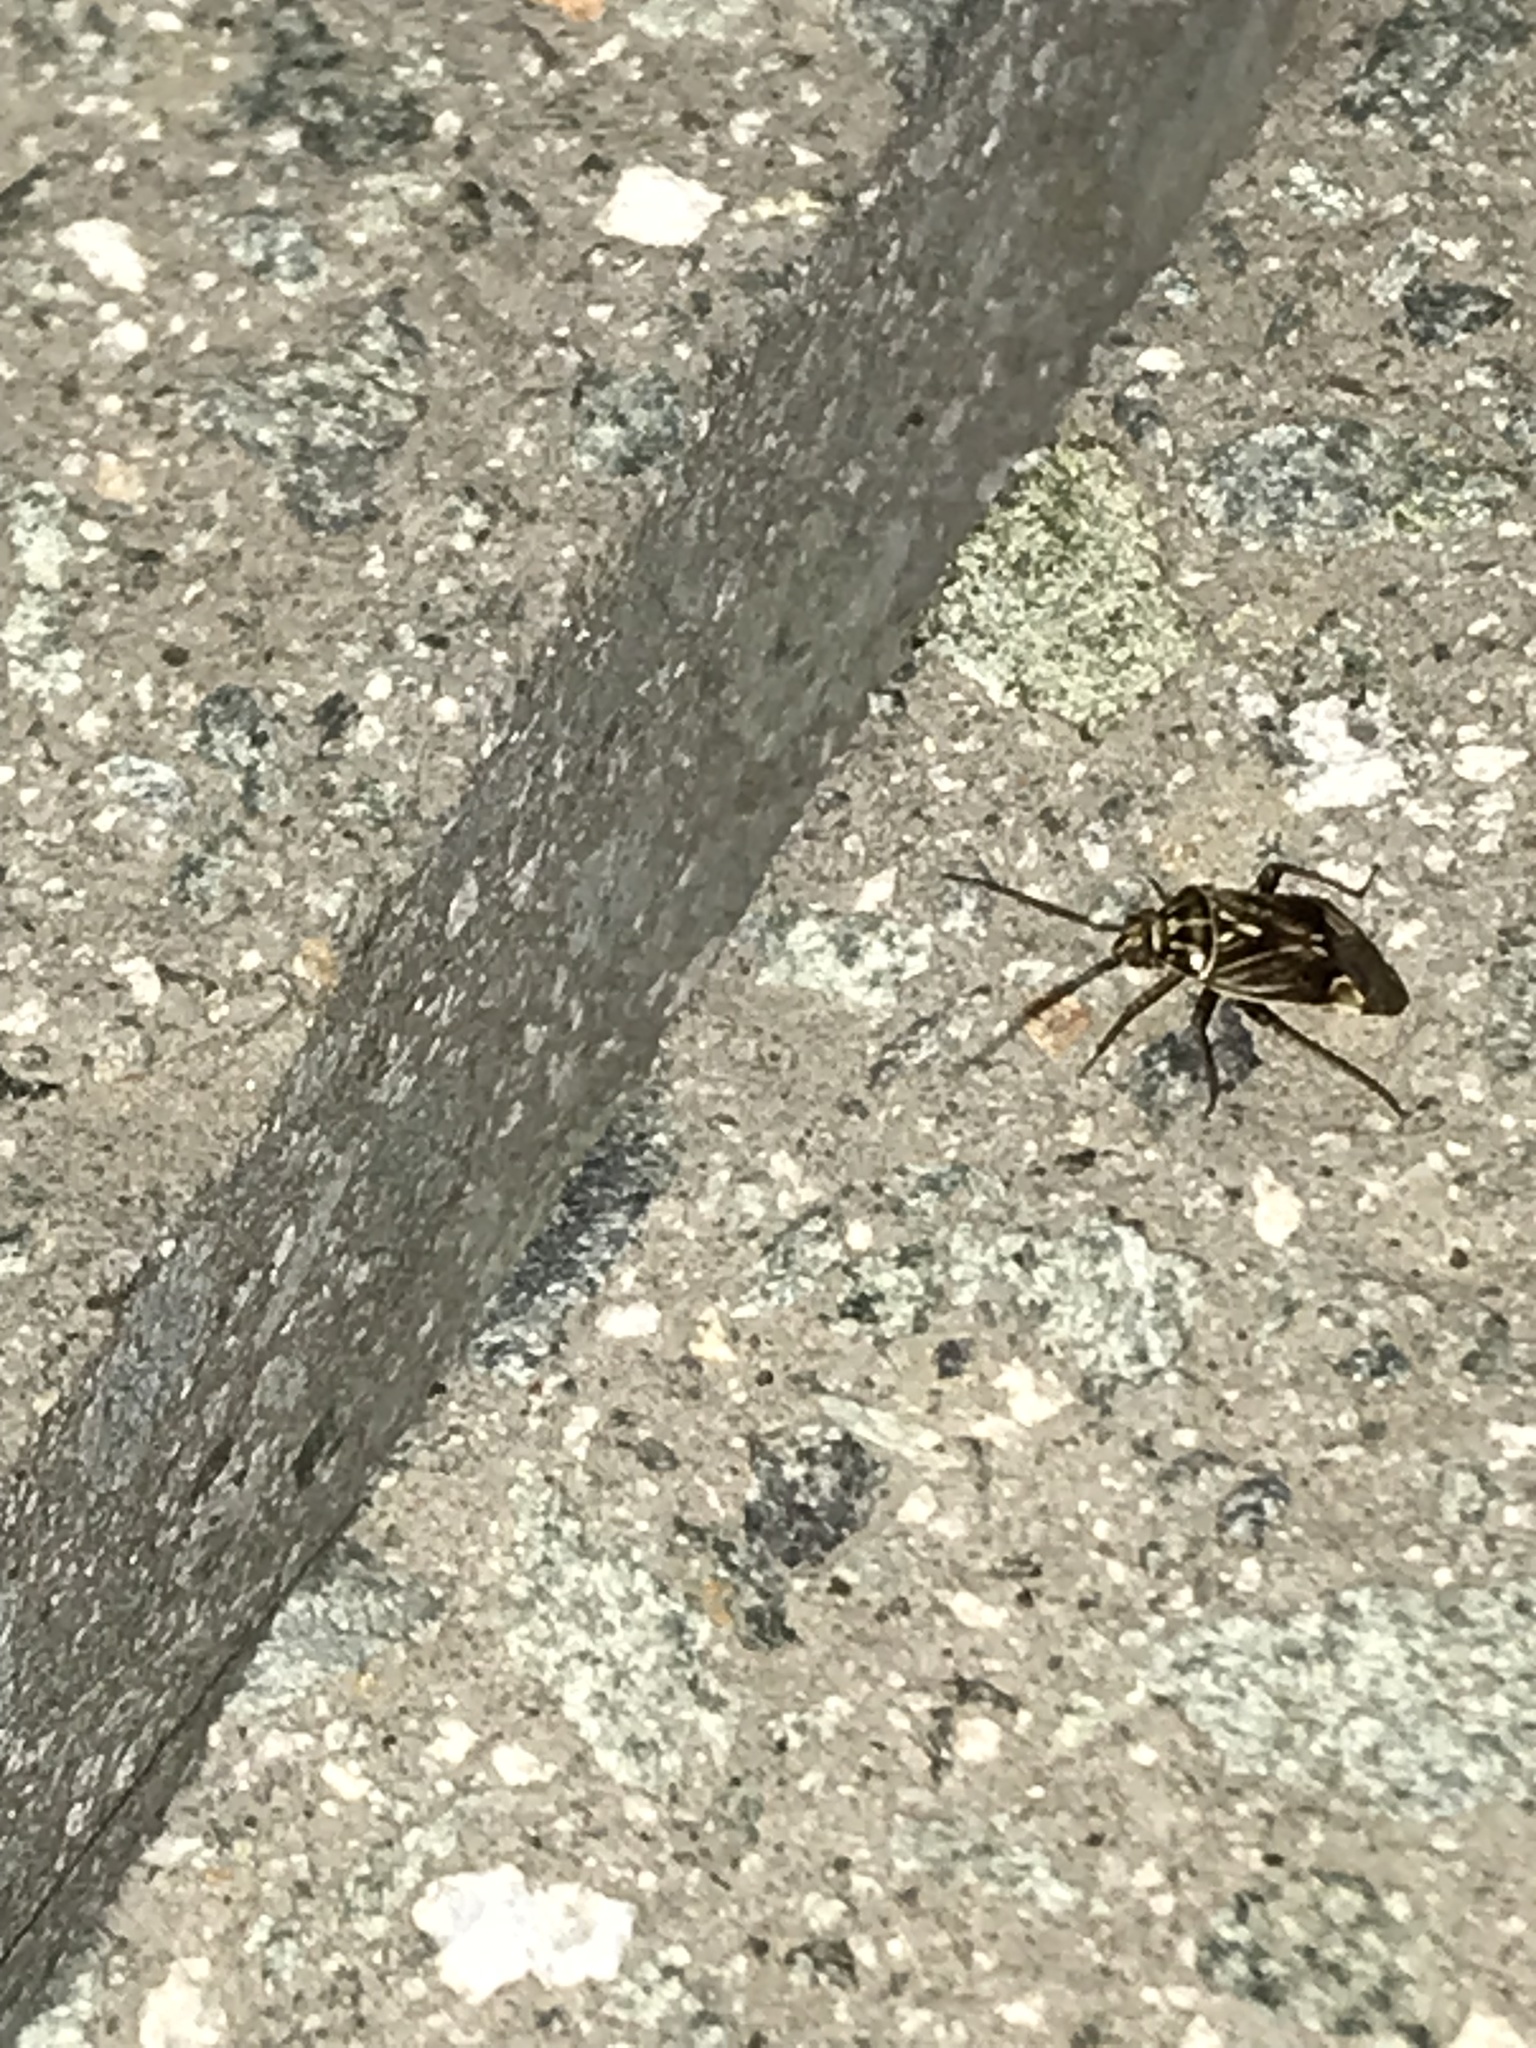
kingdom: Animalia
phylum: Arthropoda
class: Insecta
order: Hemiptera
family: Miridae
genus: Lygus
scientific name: Lygus lineolaris
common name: North american tarnished plant bug
